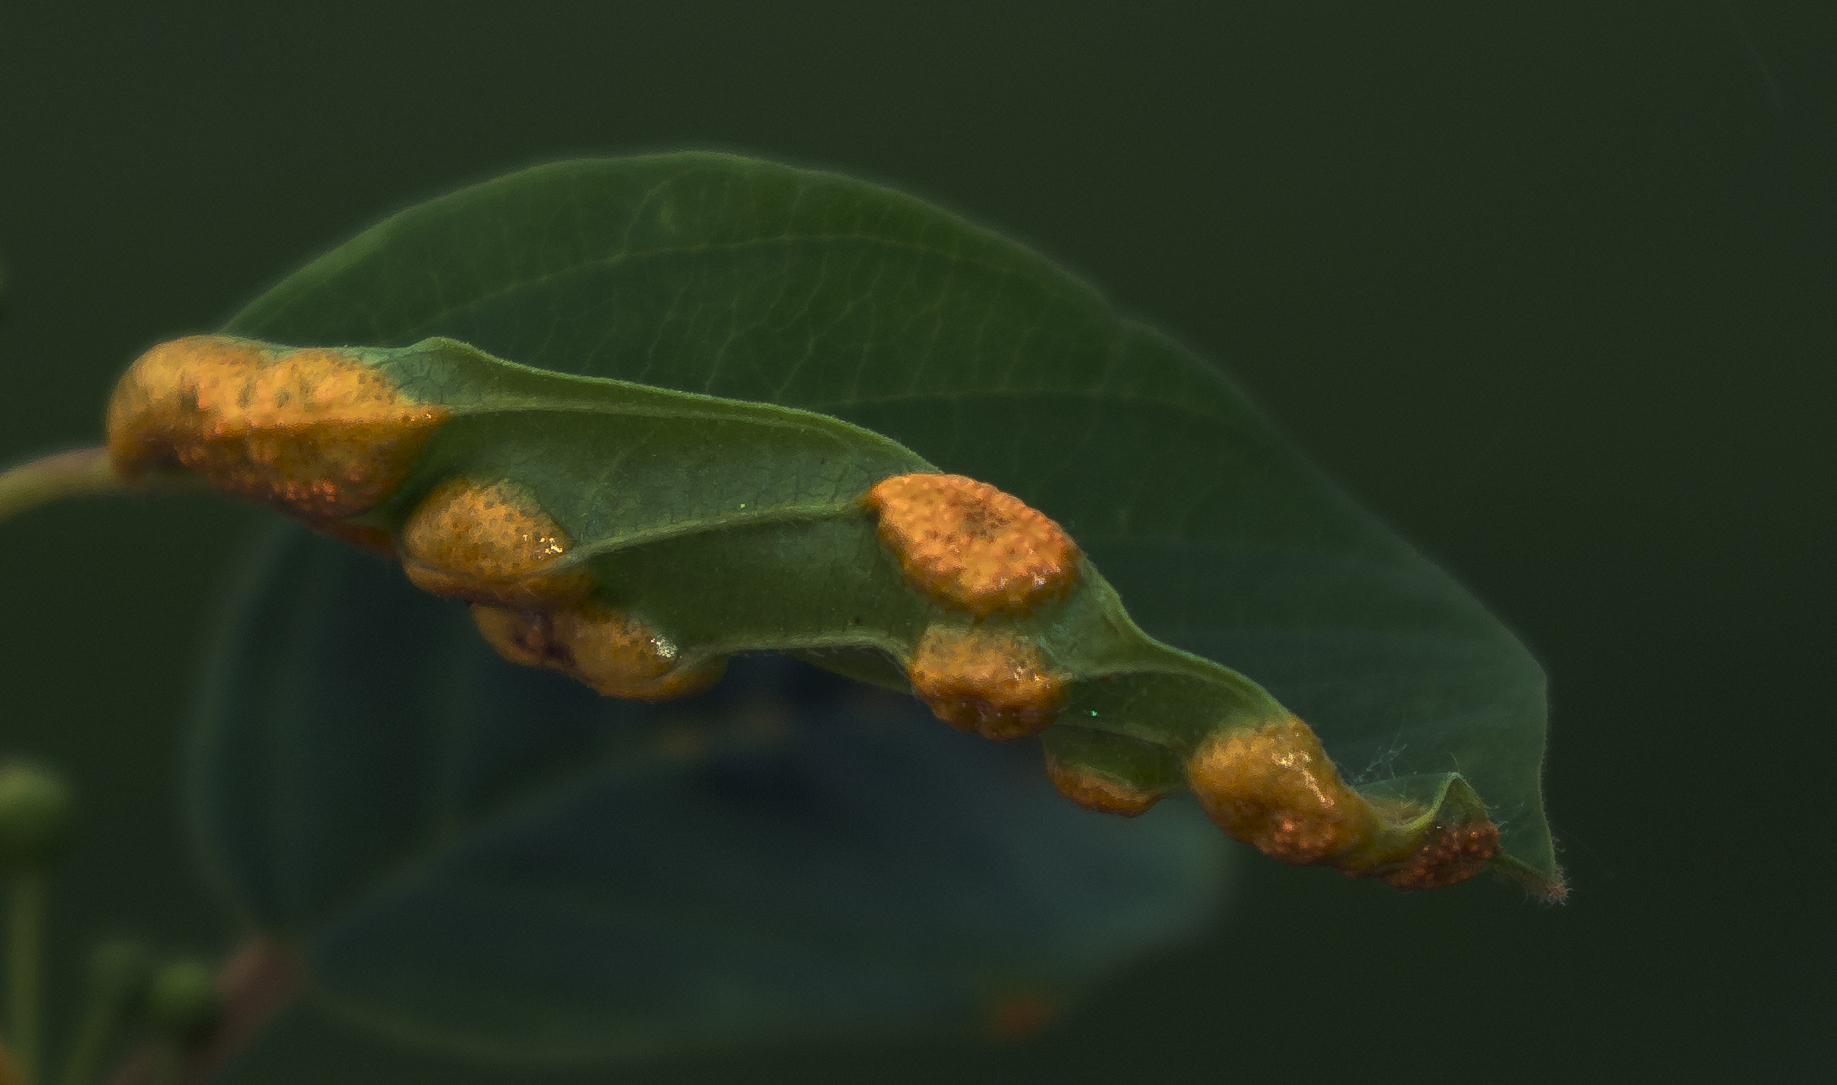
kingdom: Fungi
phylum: Basidiomycota
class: Pucciniomycetes
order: Pucciniales
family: Pucciniaceae
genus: Puccinia
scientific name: Puccinia coronata
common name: Crown rust
